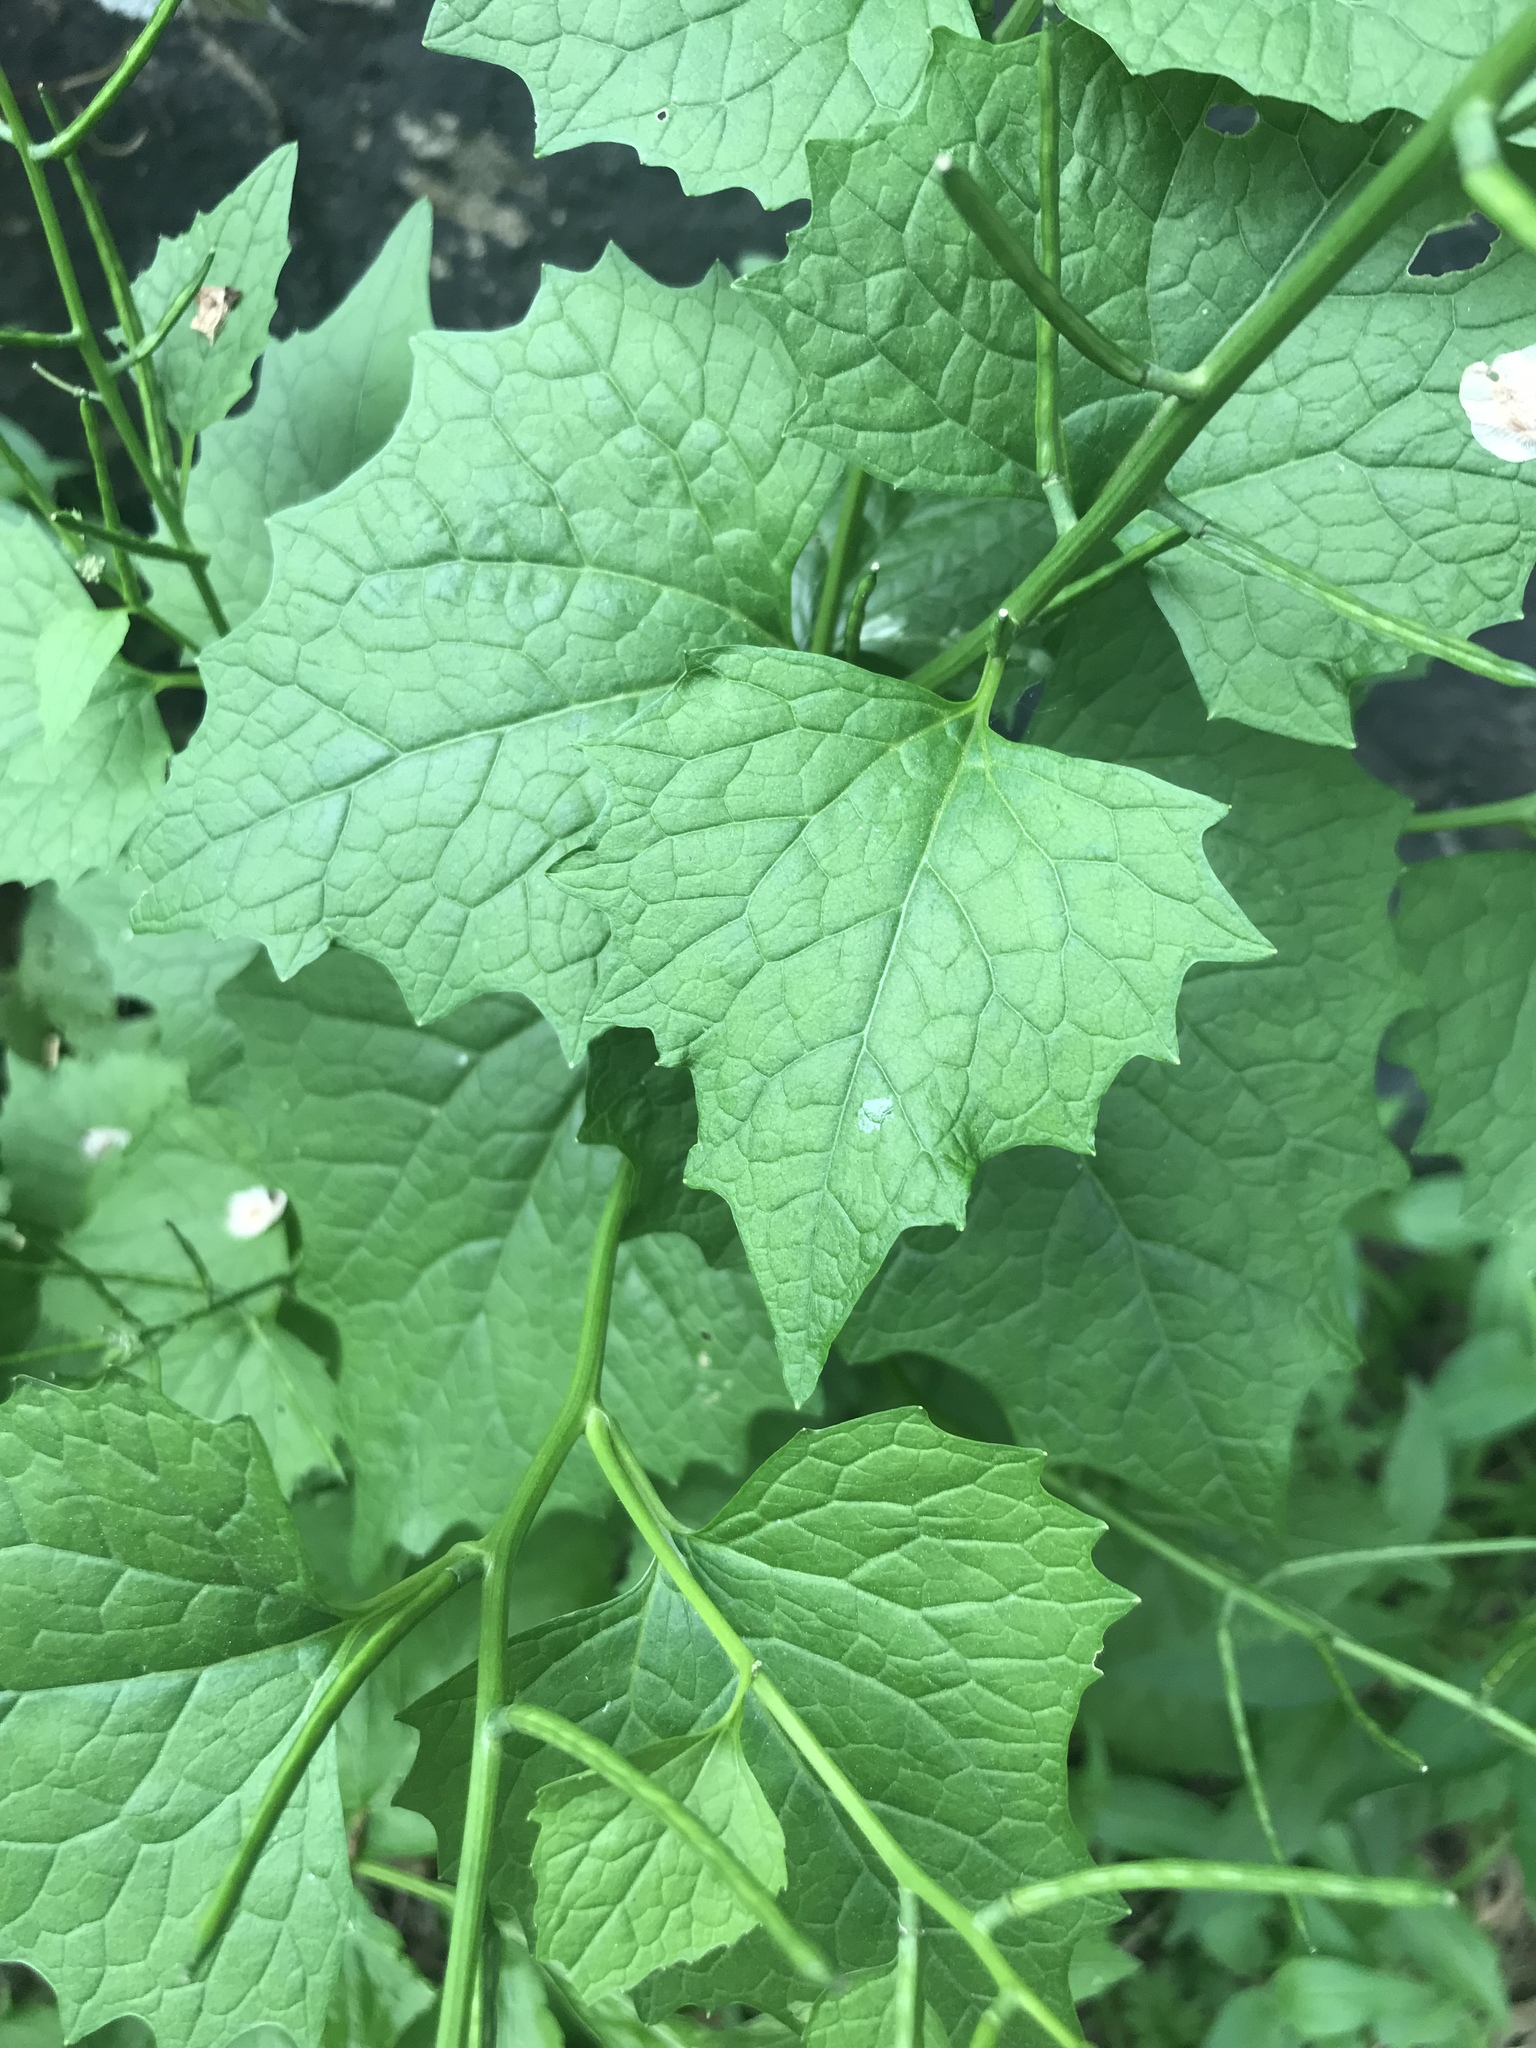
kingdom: Plantae
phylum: Tracheophyta
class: Magnoliopsida
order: Brassicales
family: Brassicaceae
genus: Alliaria
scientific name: Alliaria petiolata
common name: Garlic mustard
